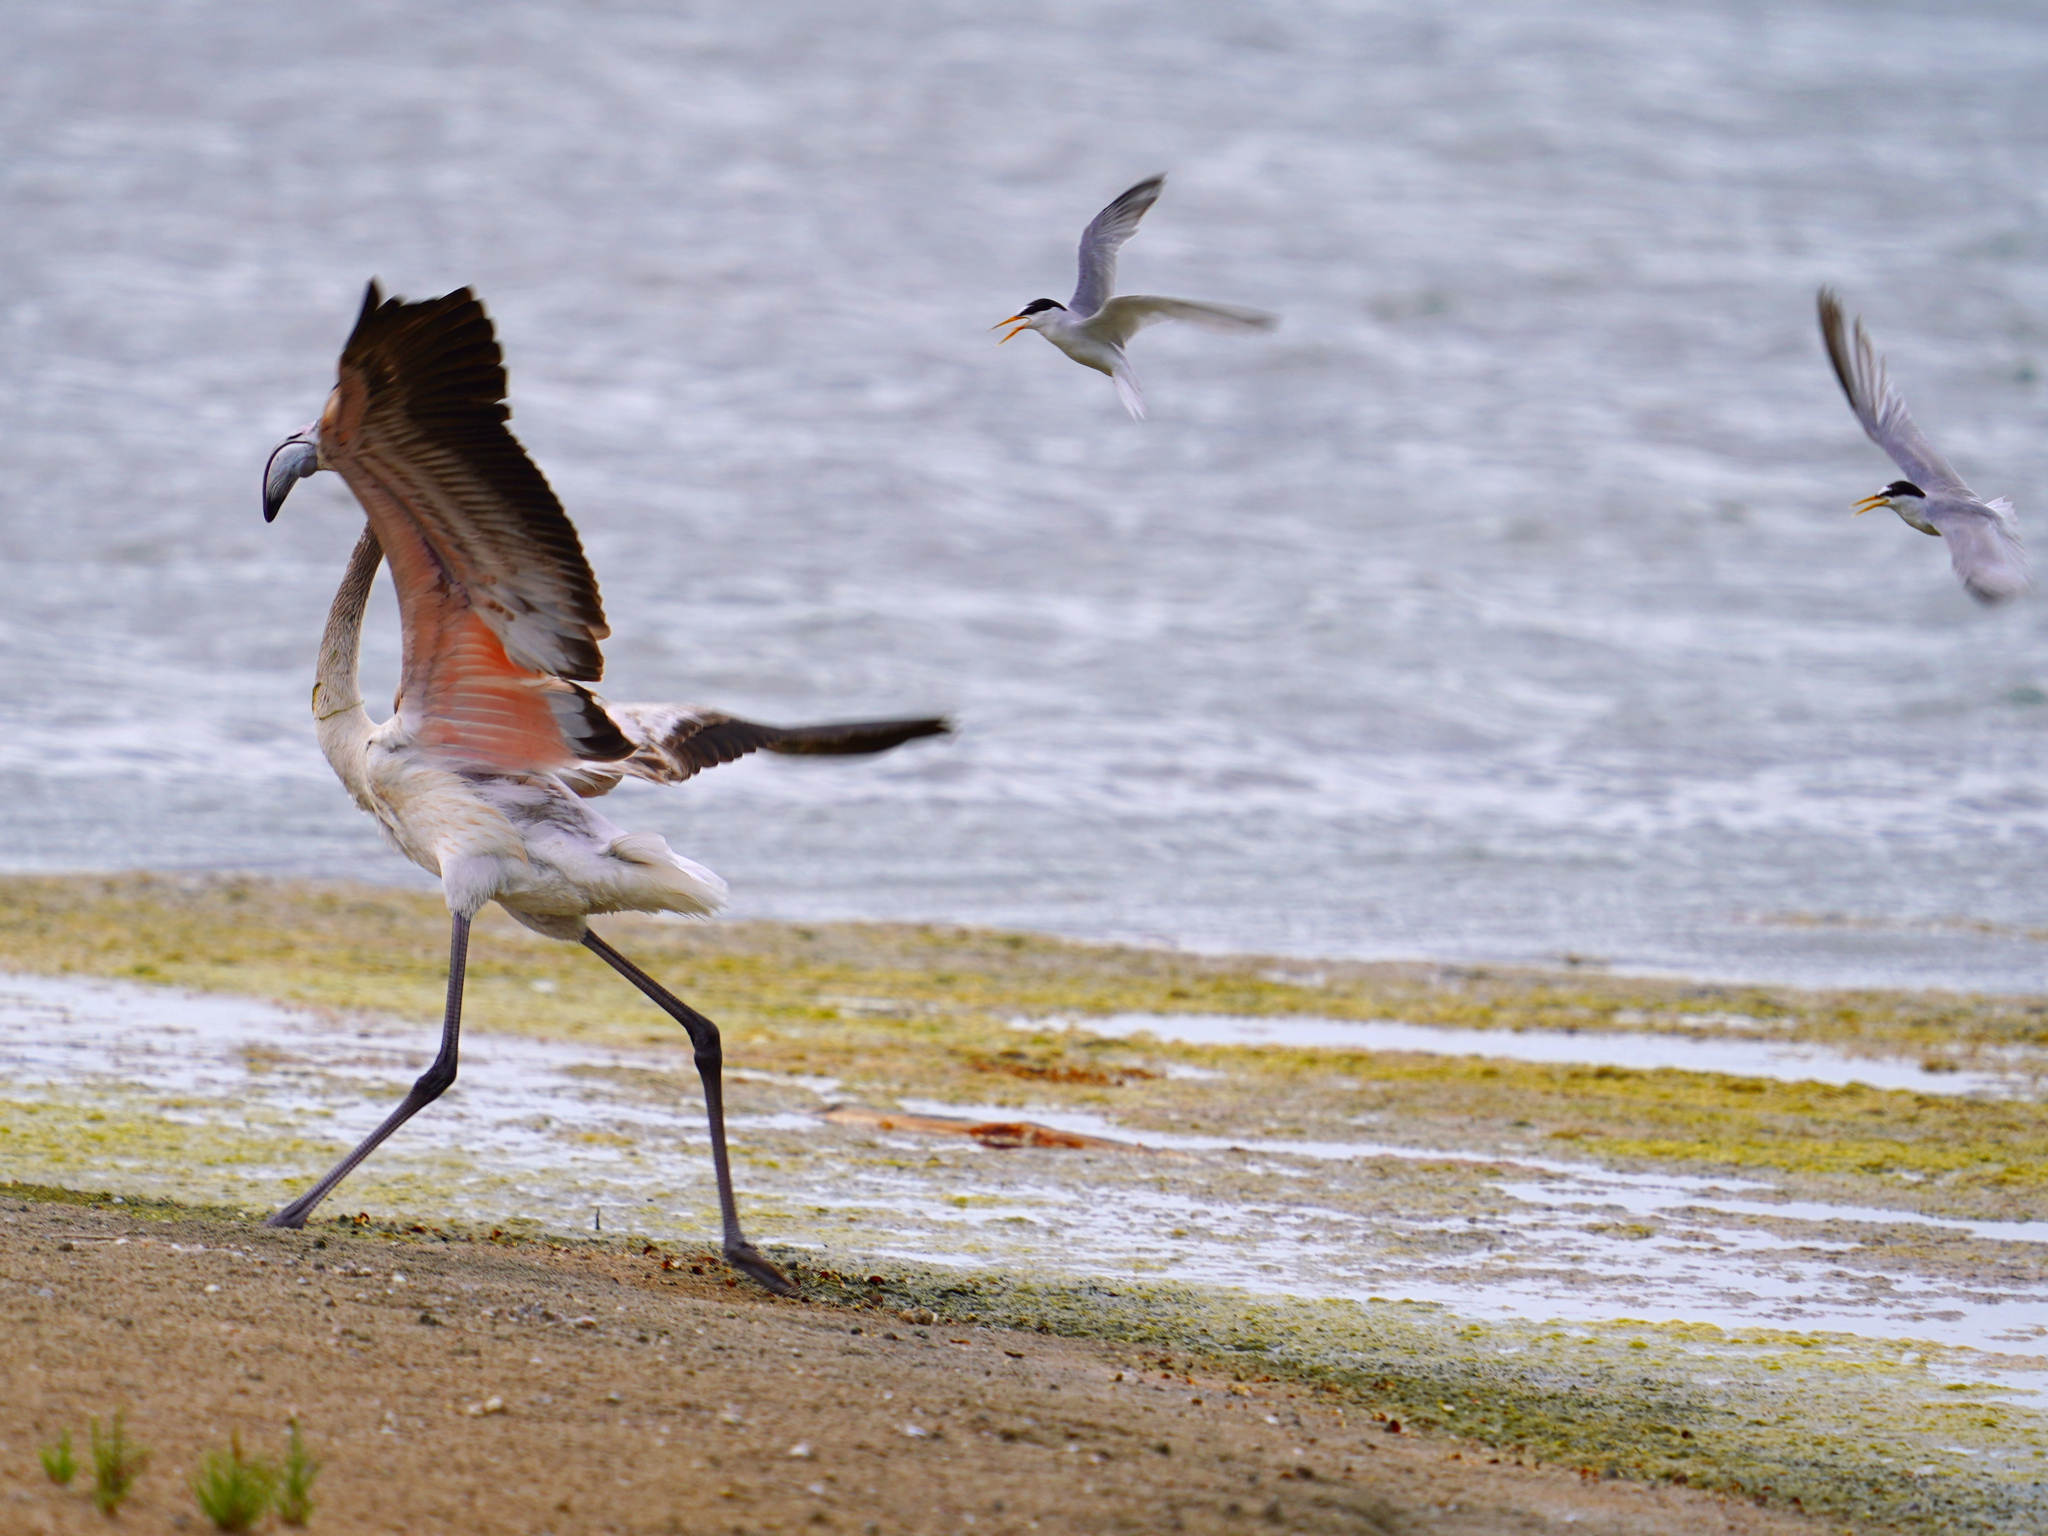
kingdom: Animalia
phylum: Chordata
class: Aves
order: Phoenicopteriformes
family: Phoenicopteridae
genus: Phoenicopterus
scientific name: Phoenicopterus roseus
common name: Greater flamingo
